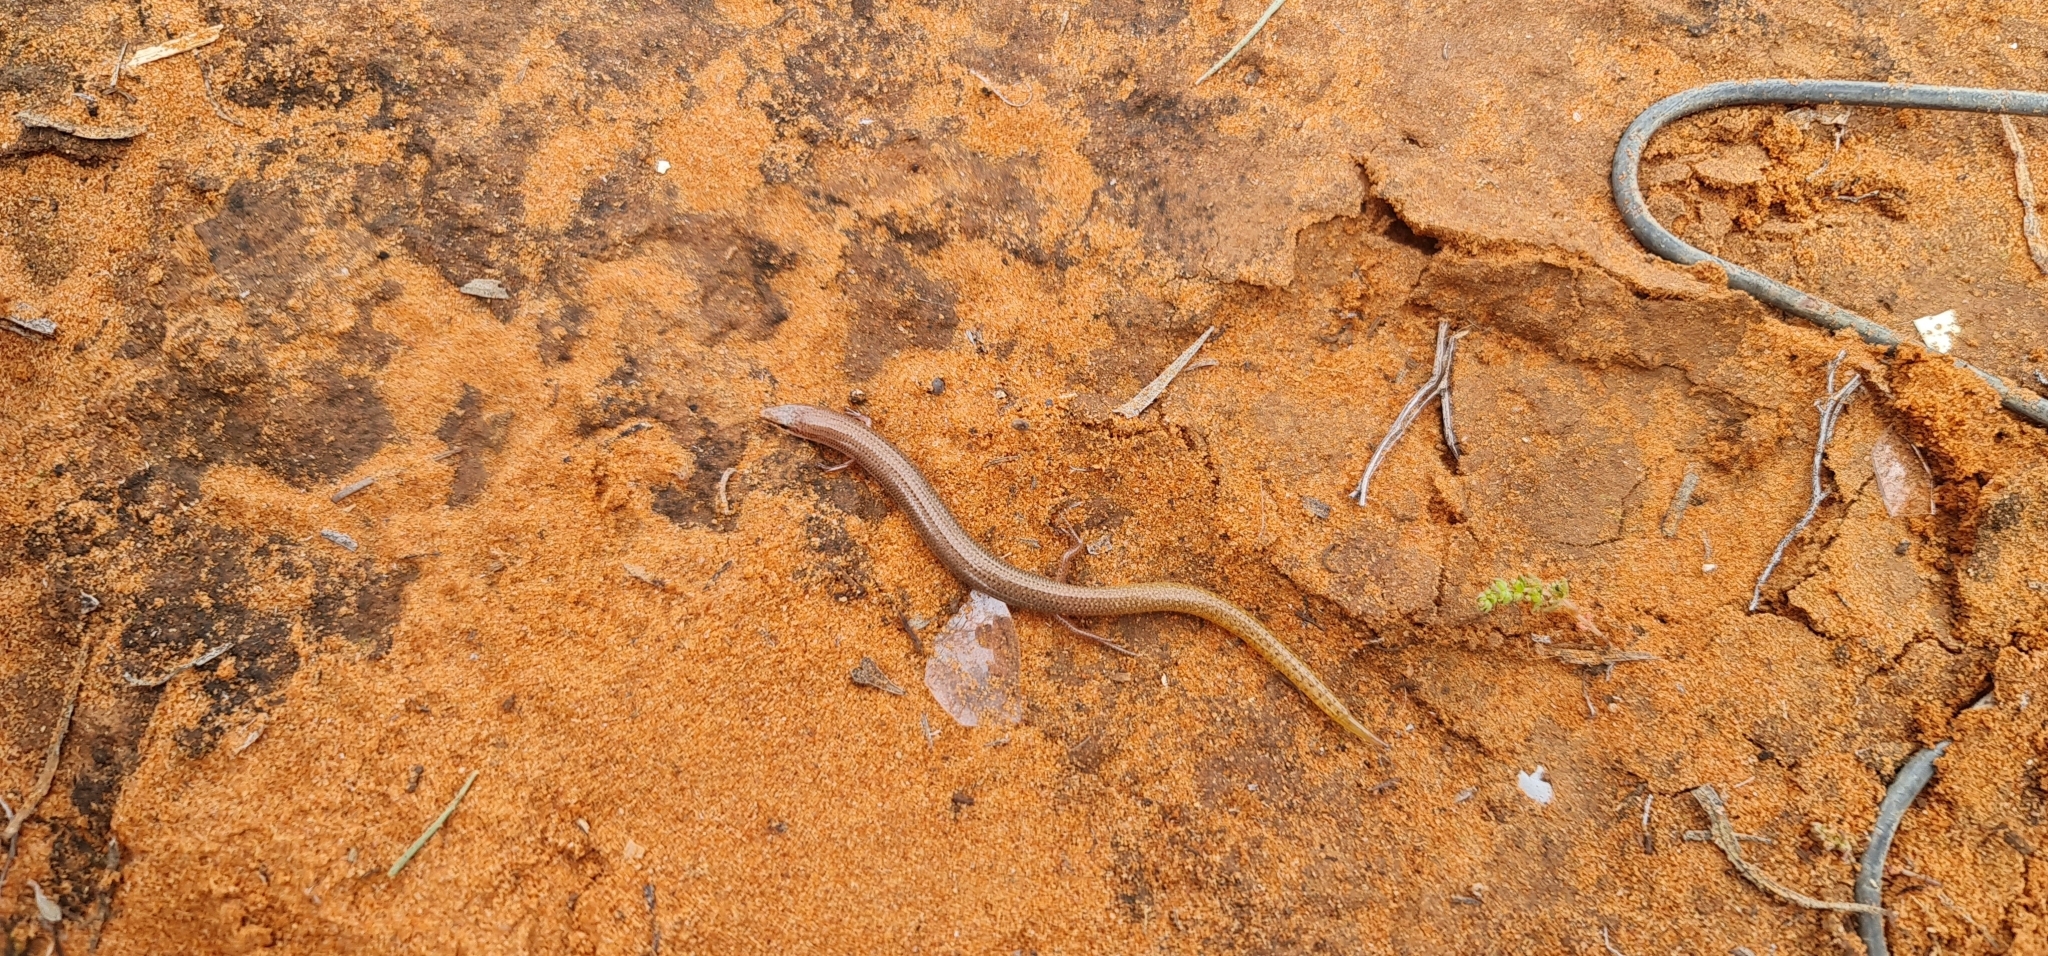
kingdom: Animalia
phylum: Chordata
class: Squamata
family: Scincidae
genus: Lerista
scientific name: Lerista aericeps
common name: Desert plain slider
